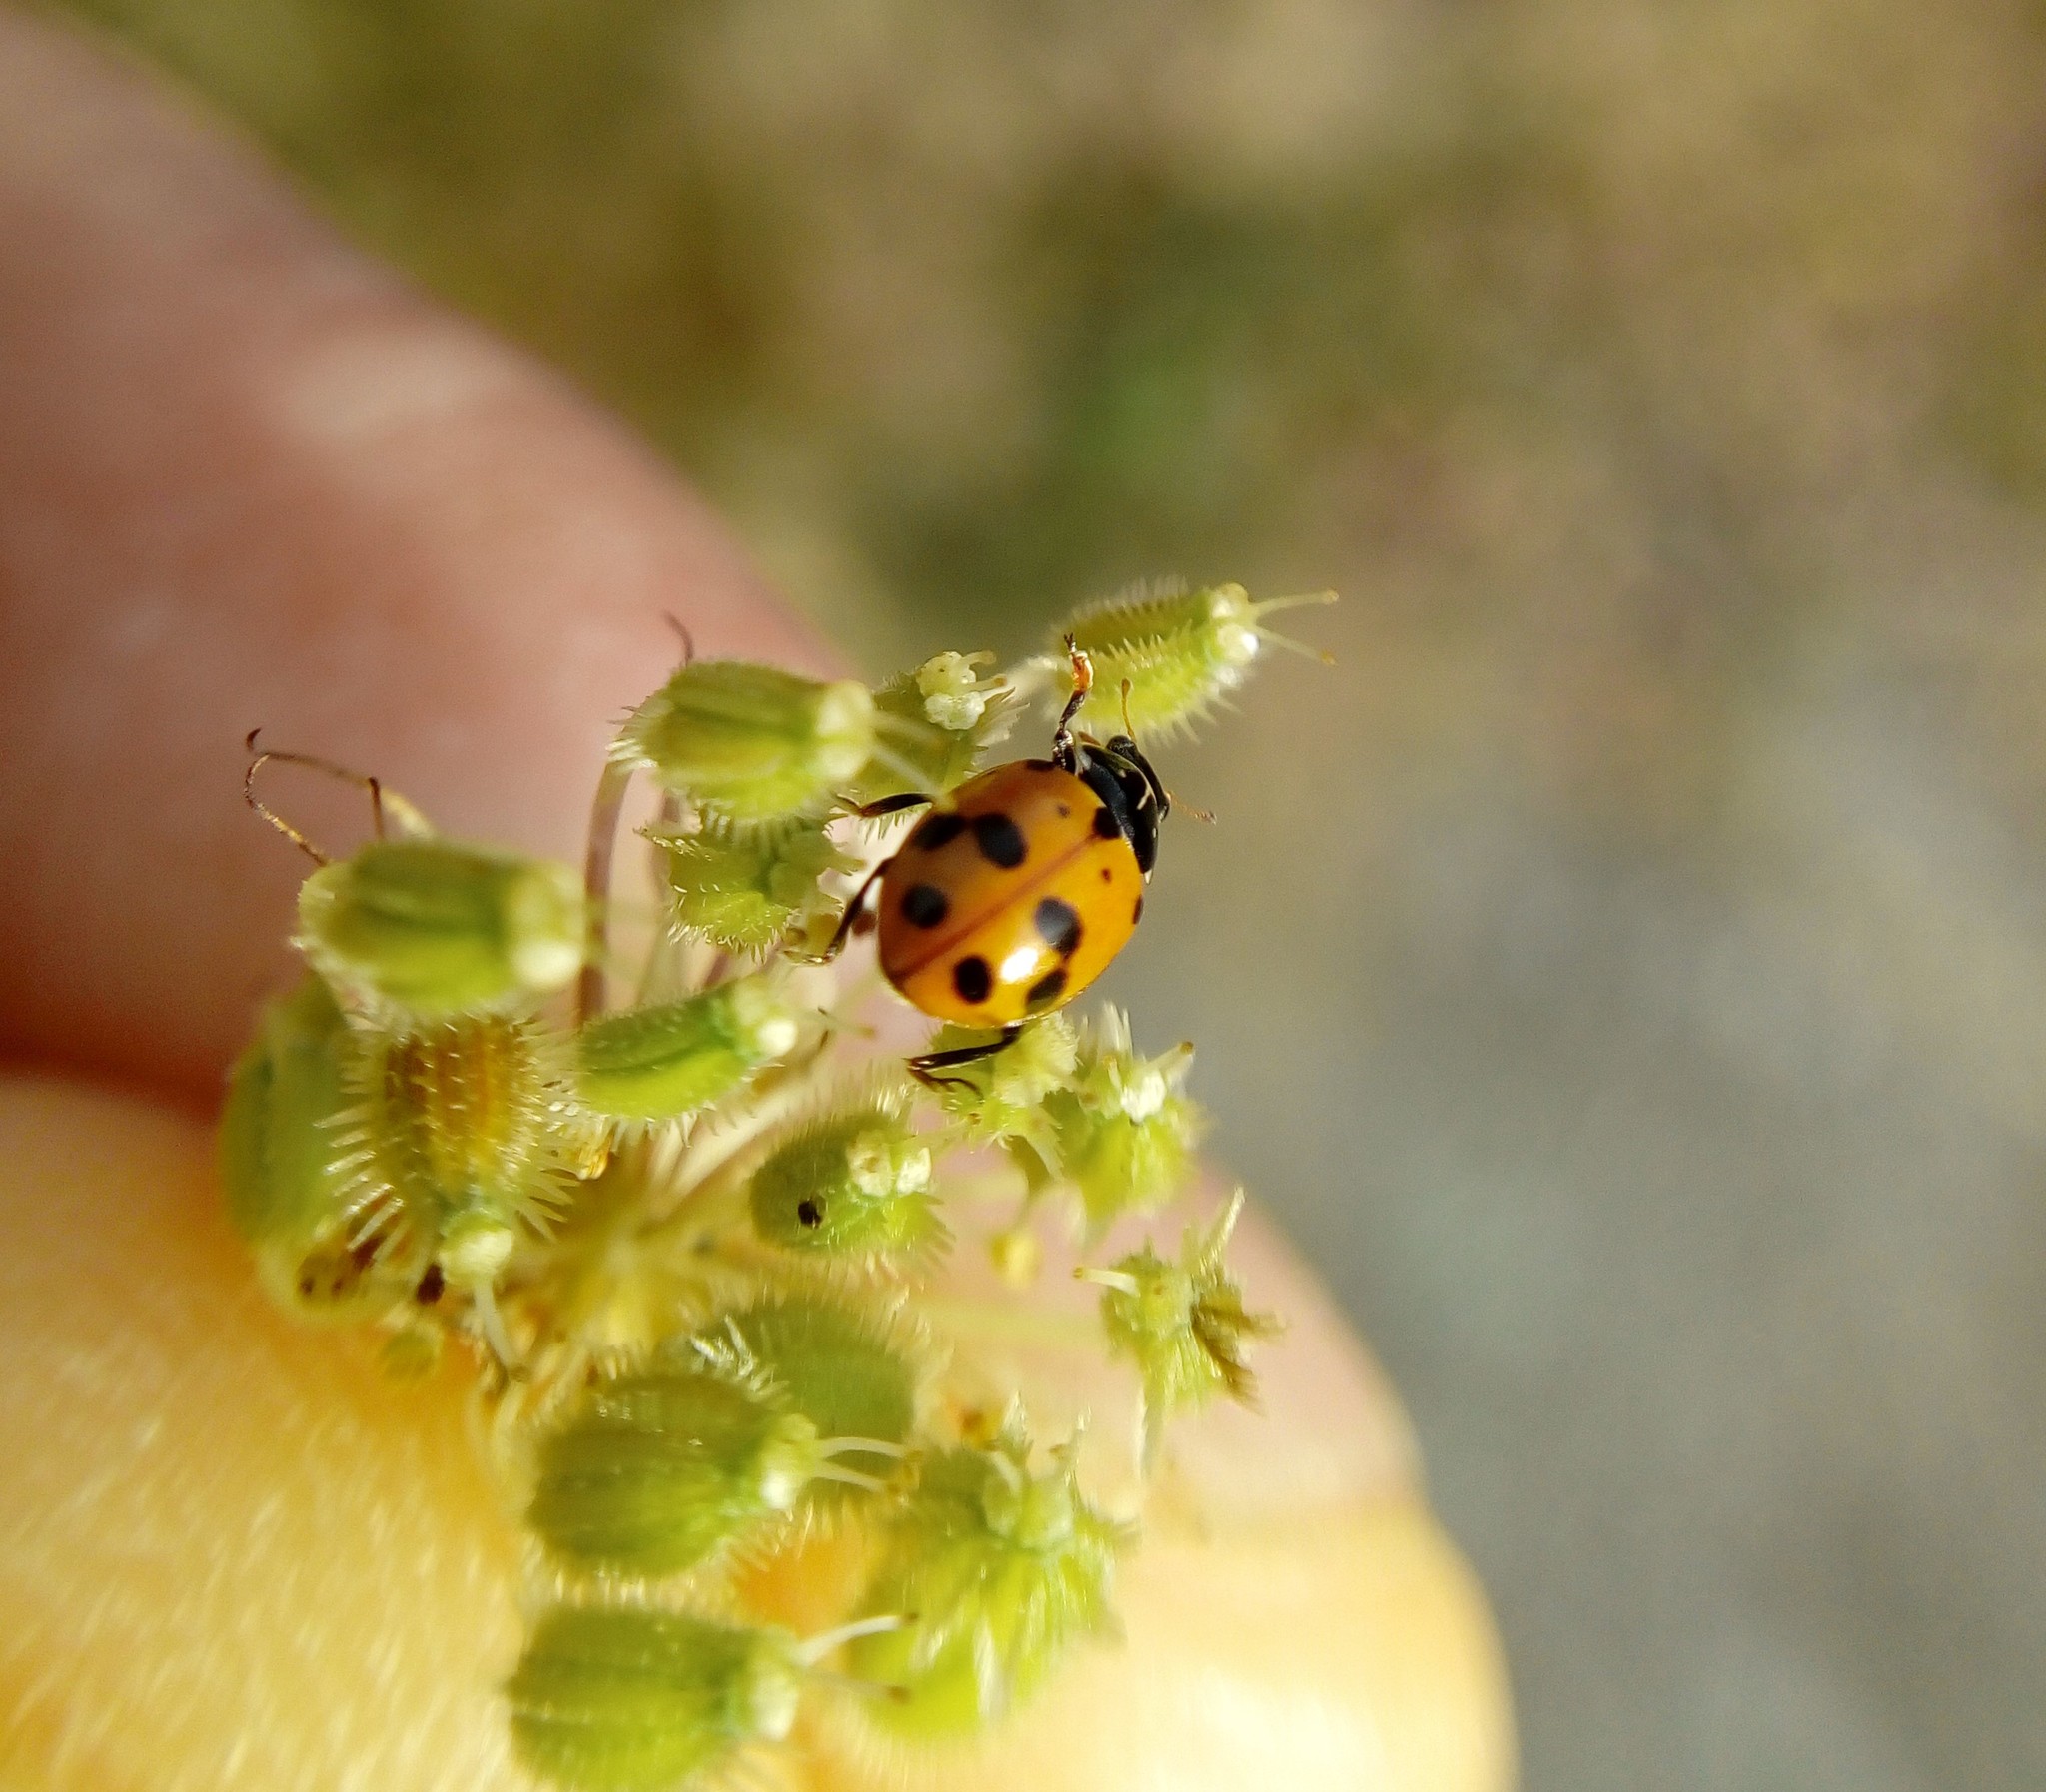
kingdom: Animalia
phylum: Arthropoda
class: Insecta
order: Coleoptera
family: Coccinellidae
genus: Hippodamia
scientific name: Hippodamia variegata
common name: Ladybird beetle
